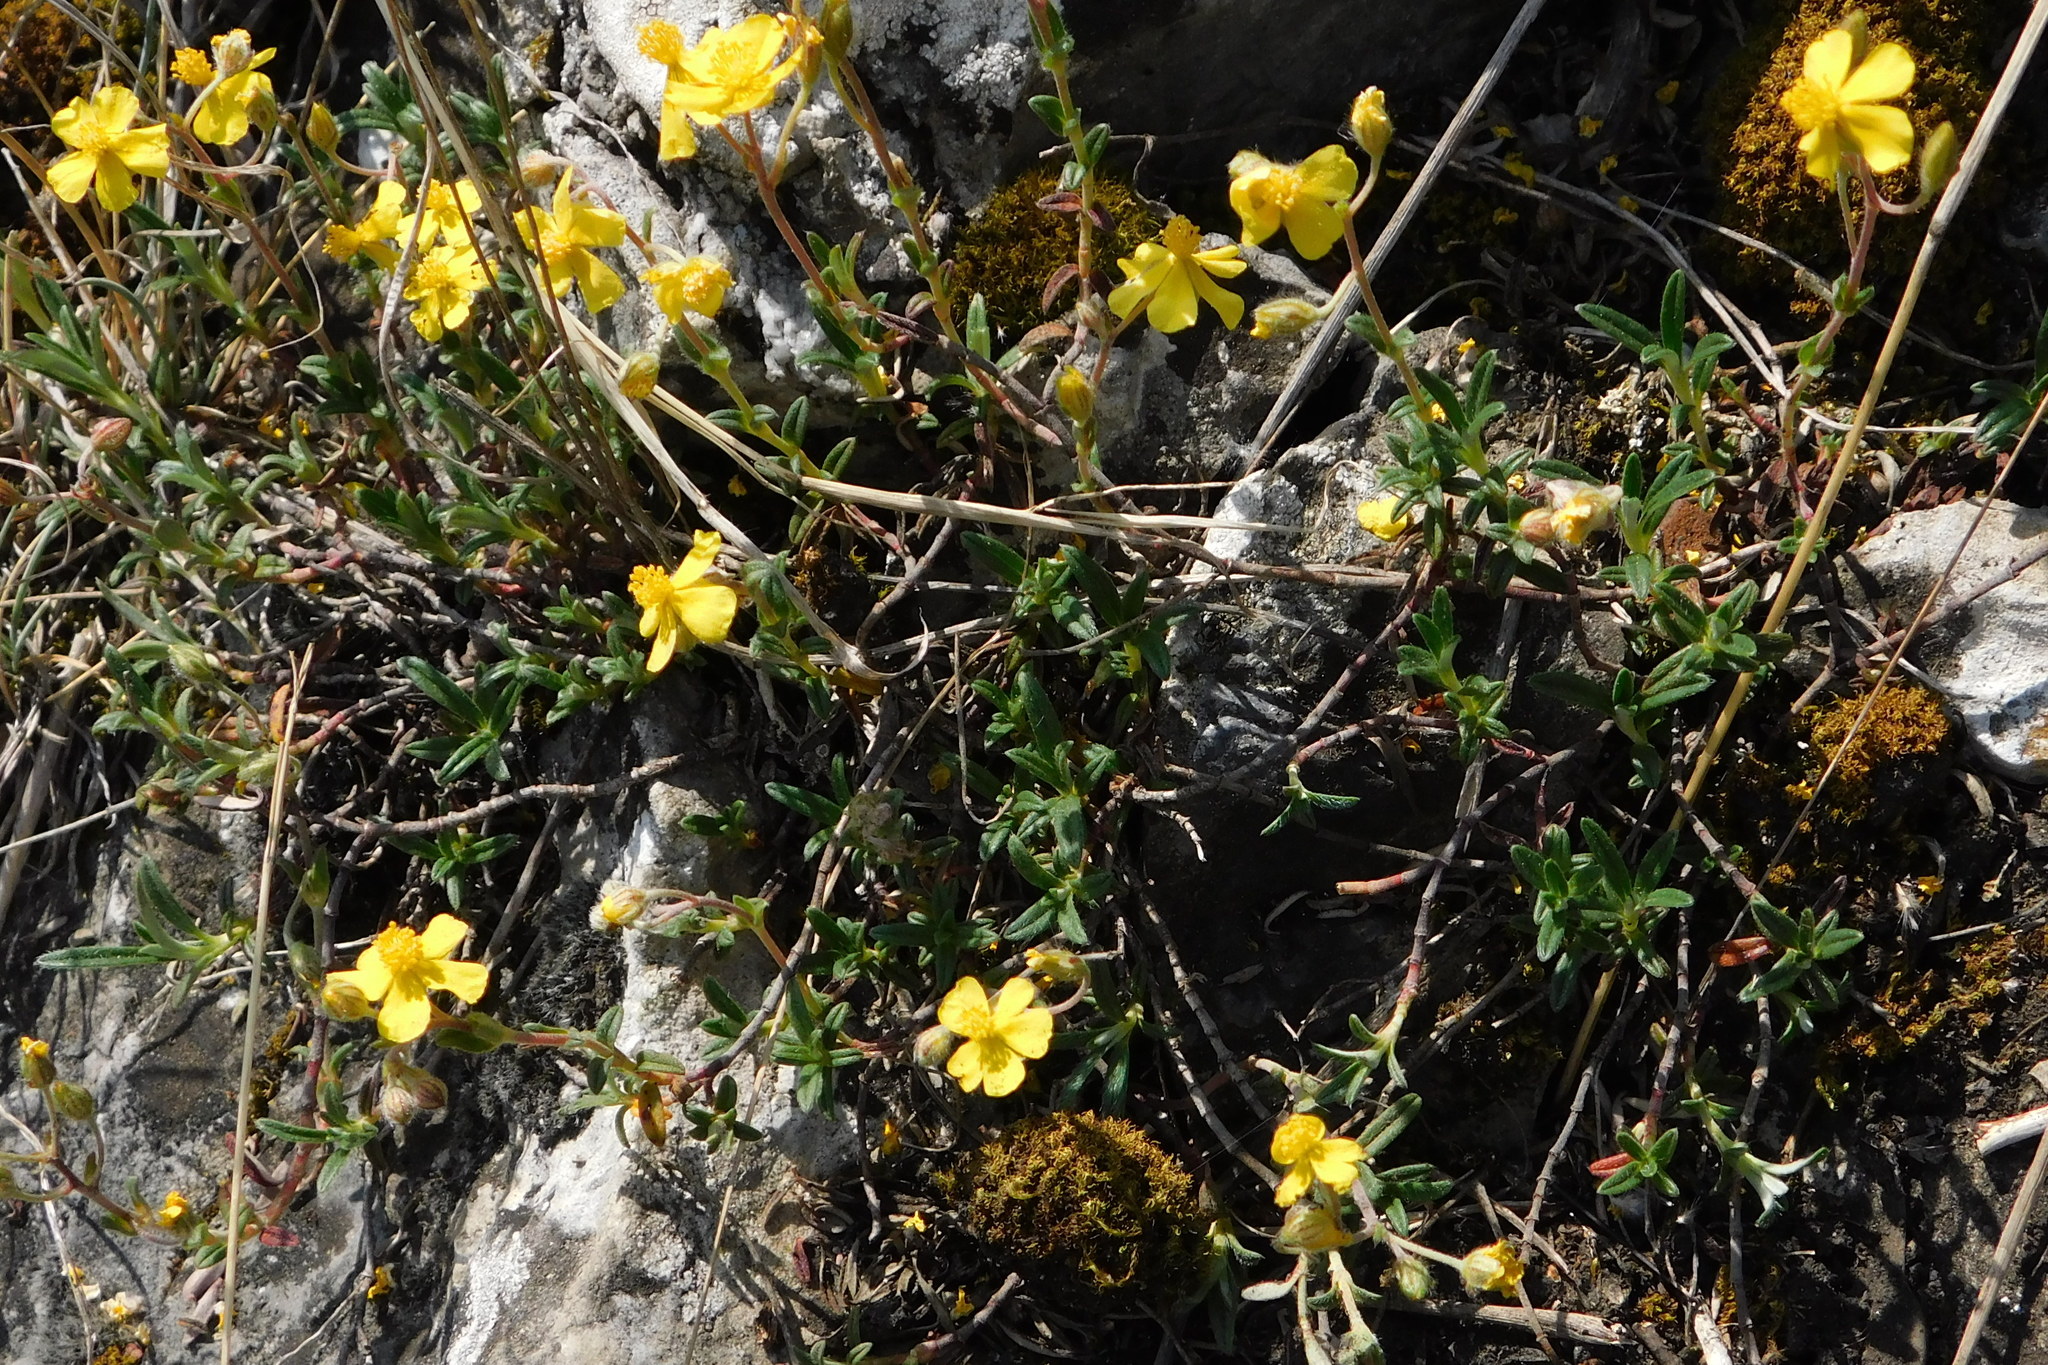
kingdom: Plantae
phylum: Tracheophyta
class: Magnoliopsida
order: Malvales
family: Cistaceae
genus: Helianthemum
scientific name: Helianthemum canum
